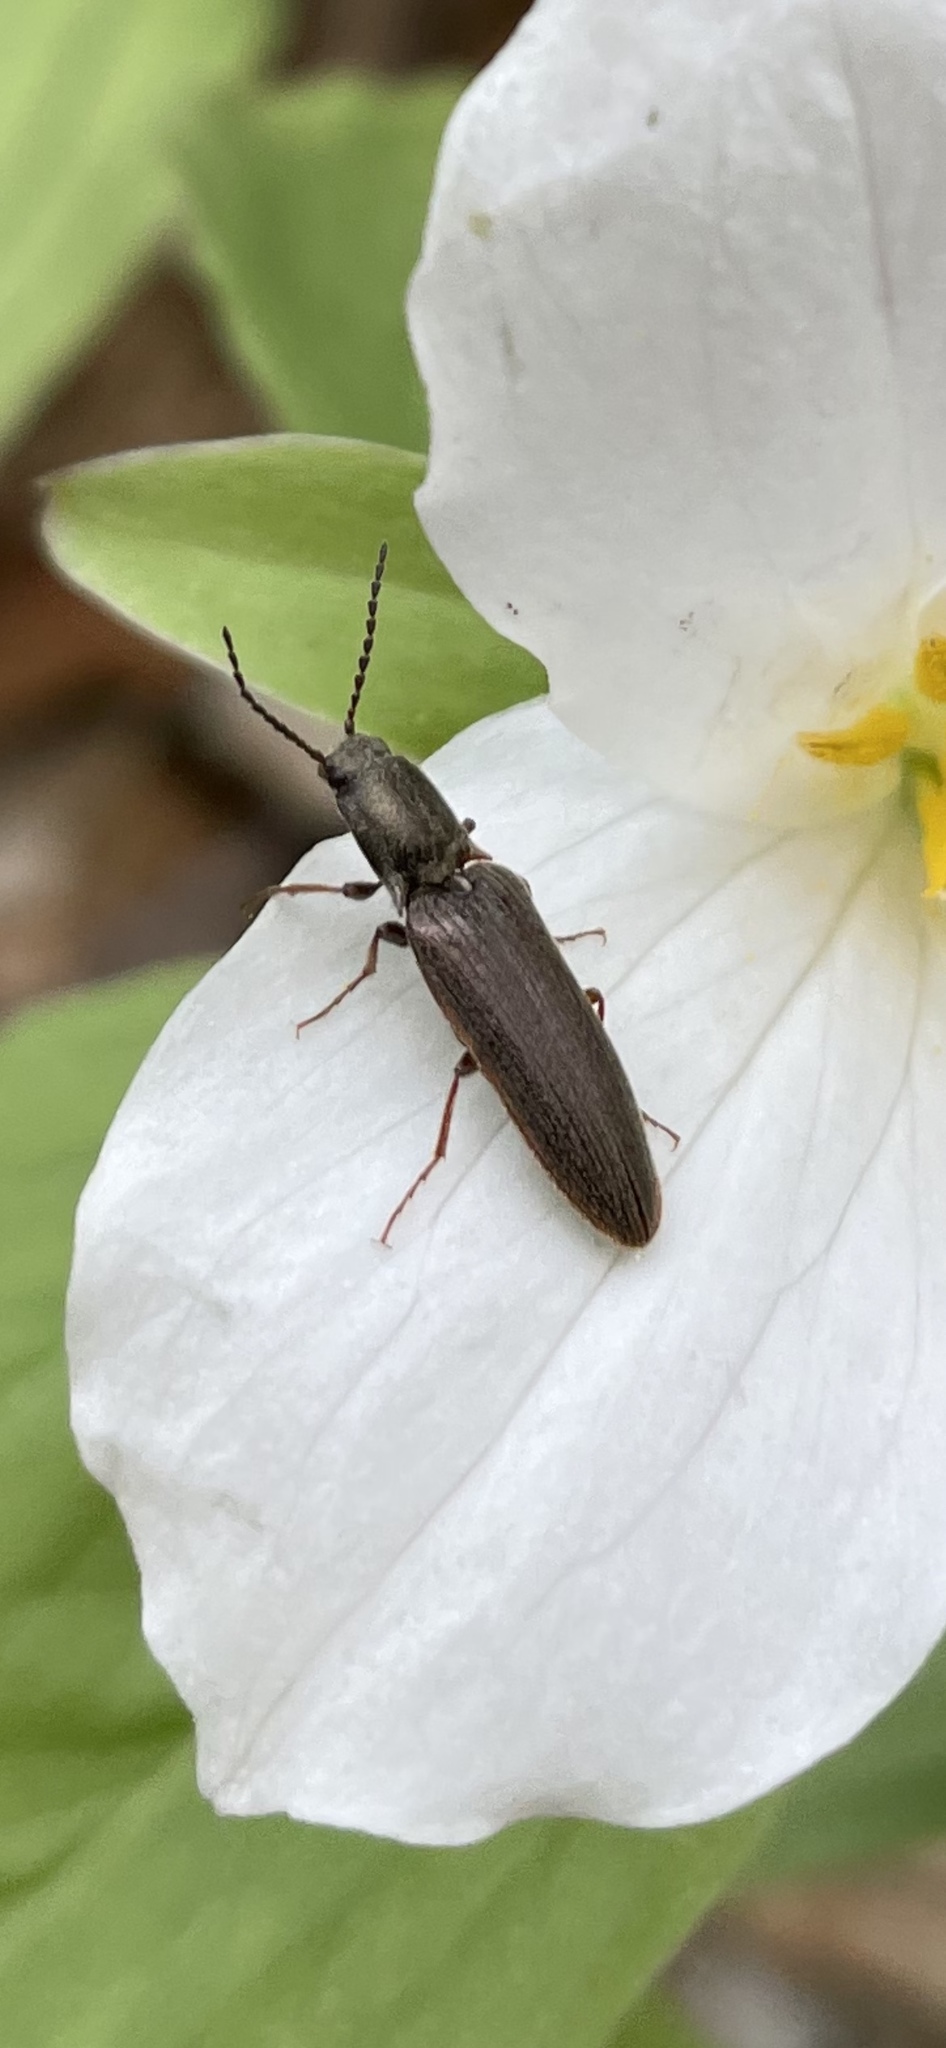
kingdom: Animalia
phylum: Arthropoda
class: Insecta
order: Coleoptera
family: Elateridae
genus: Sylvanelater
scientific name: Sylvanelater cylindriformis
